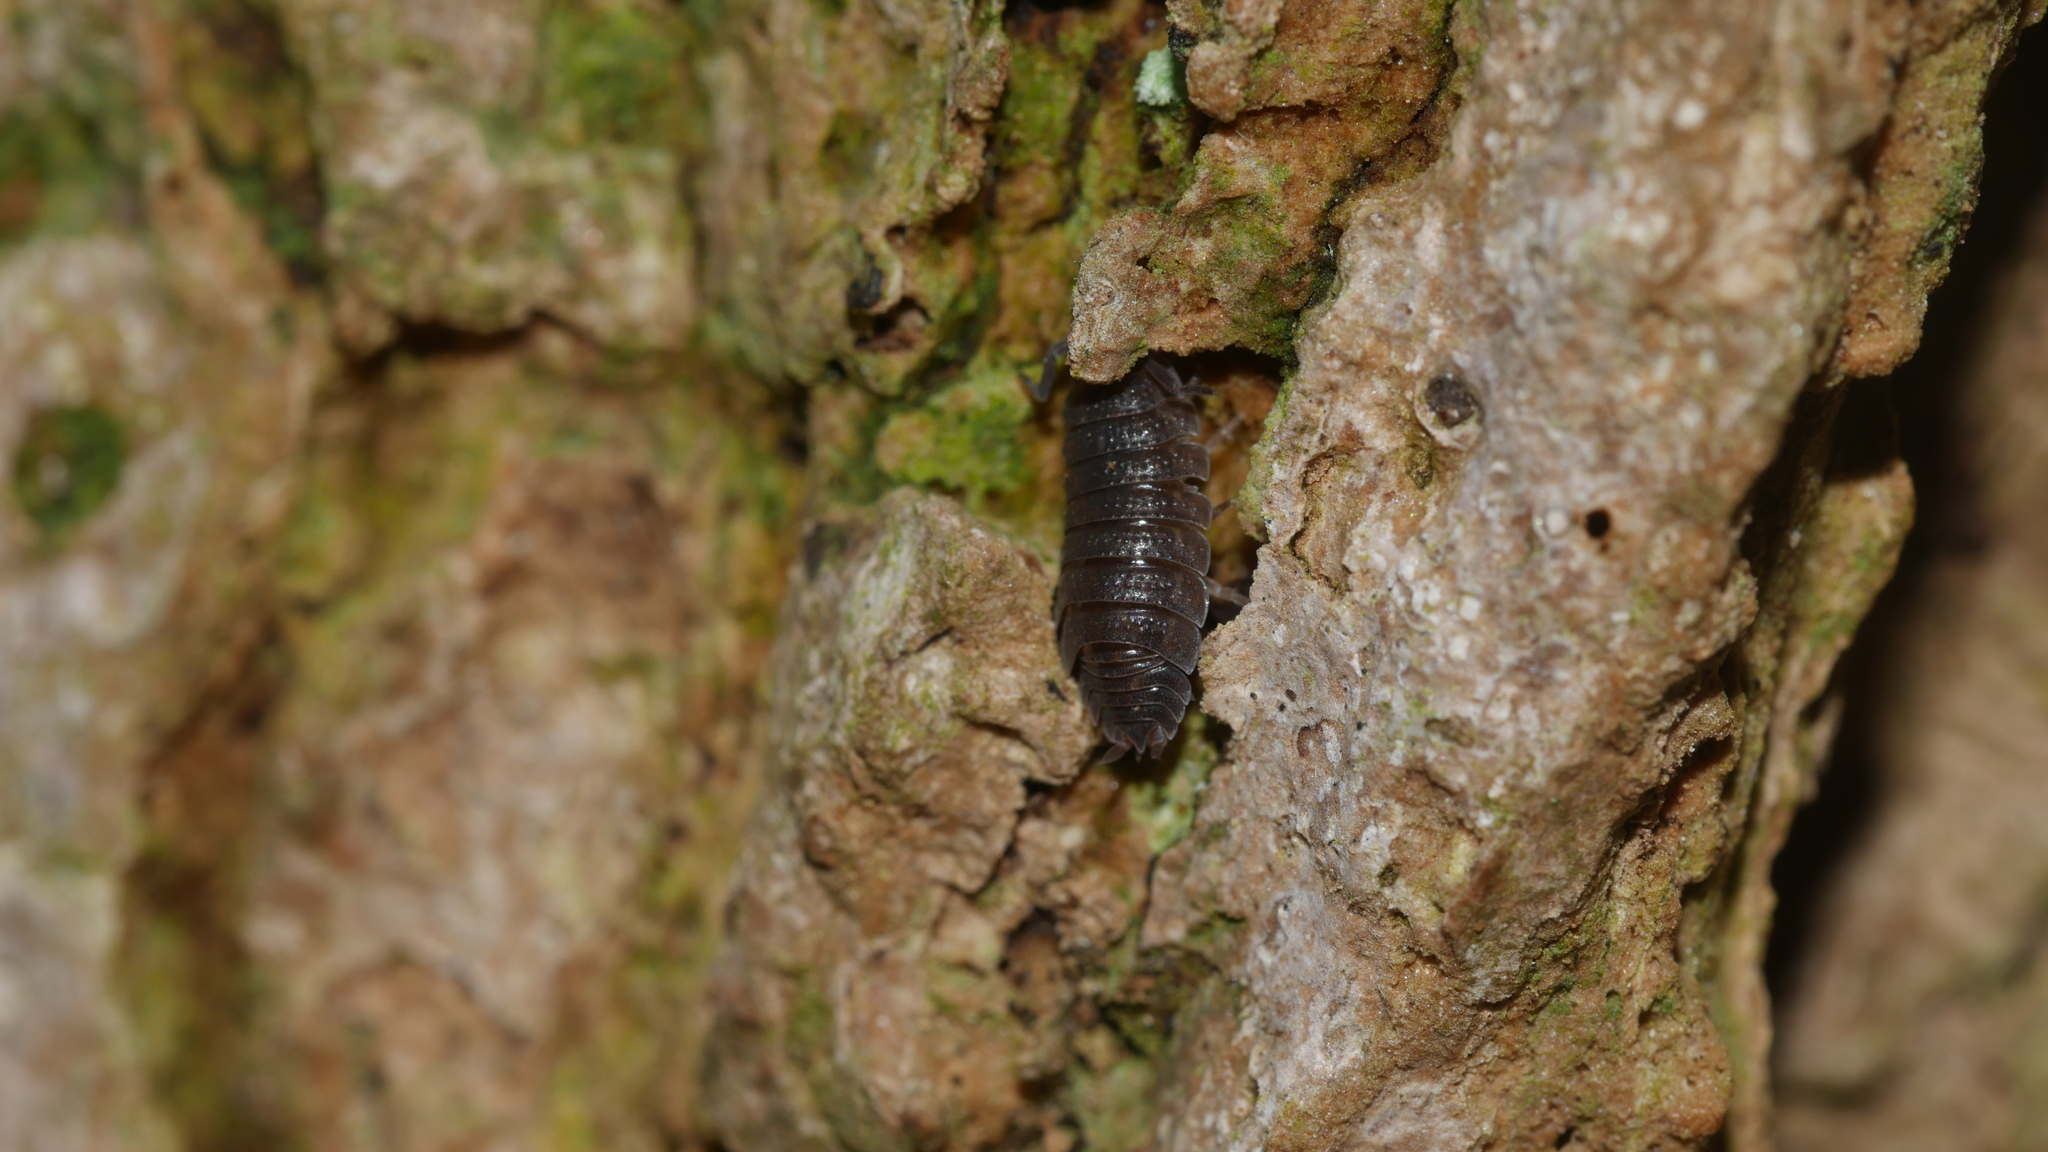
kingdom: Animalia
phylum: Arthropoda
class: Malacostraca
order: Isopoda
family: Porcellionidae
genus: Porcellio
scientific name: Porcellio scaber
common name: Common rough woodlouse
